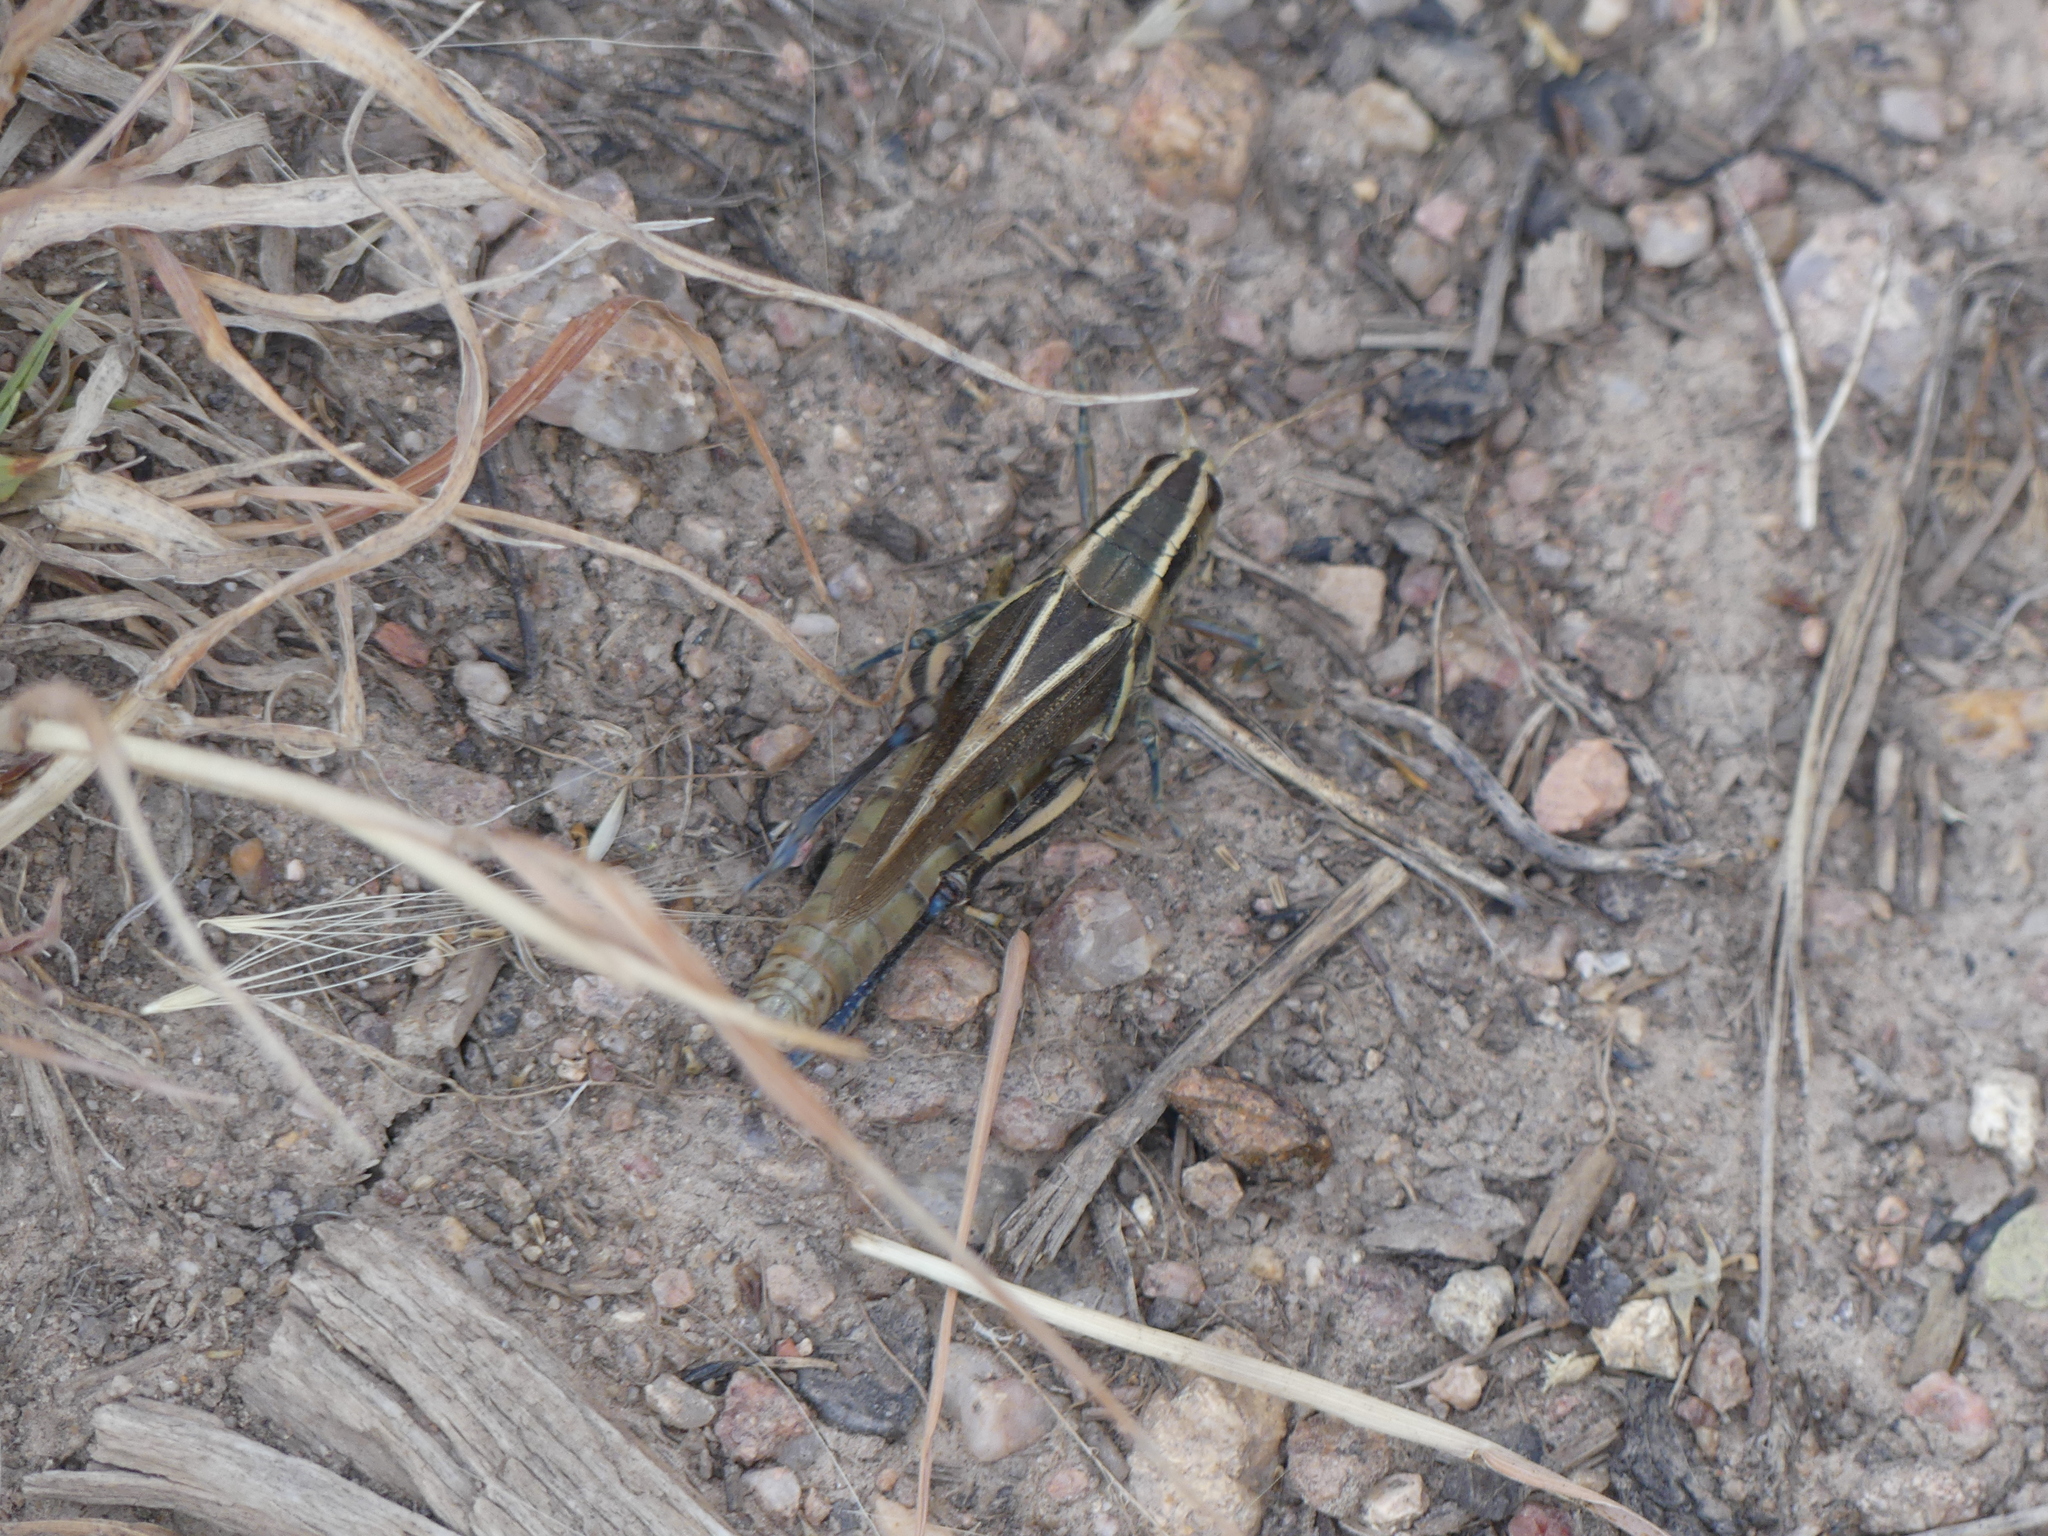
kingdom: Animalia
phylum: Arthropoda
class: Insecta
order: Orthoptera
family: Acrididae
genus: Melanoplus
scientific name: Melanoplus bivittatus
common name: Two-striped grasshopper
